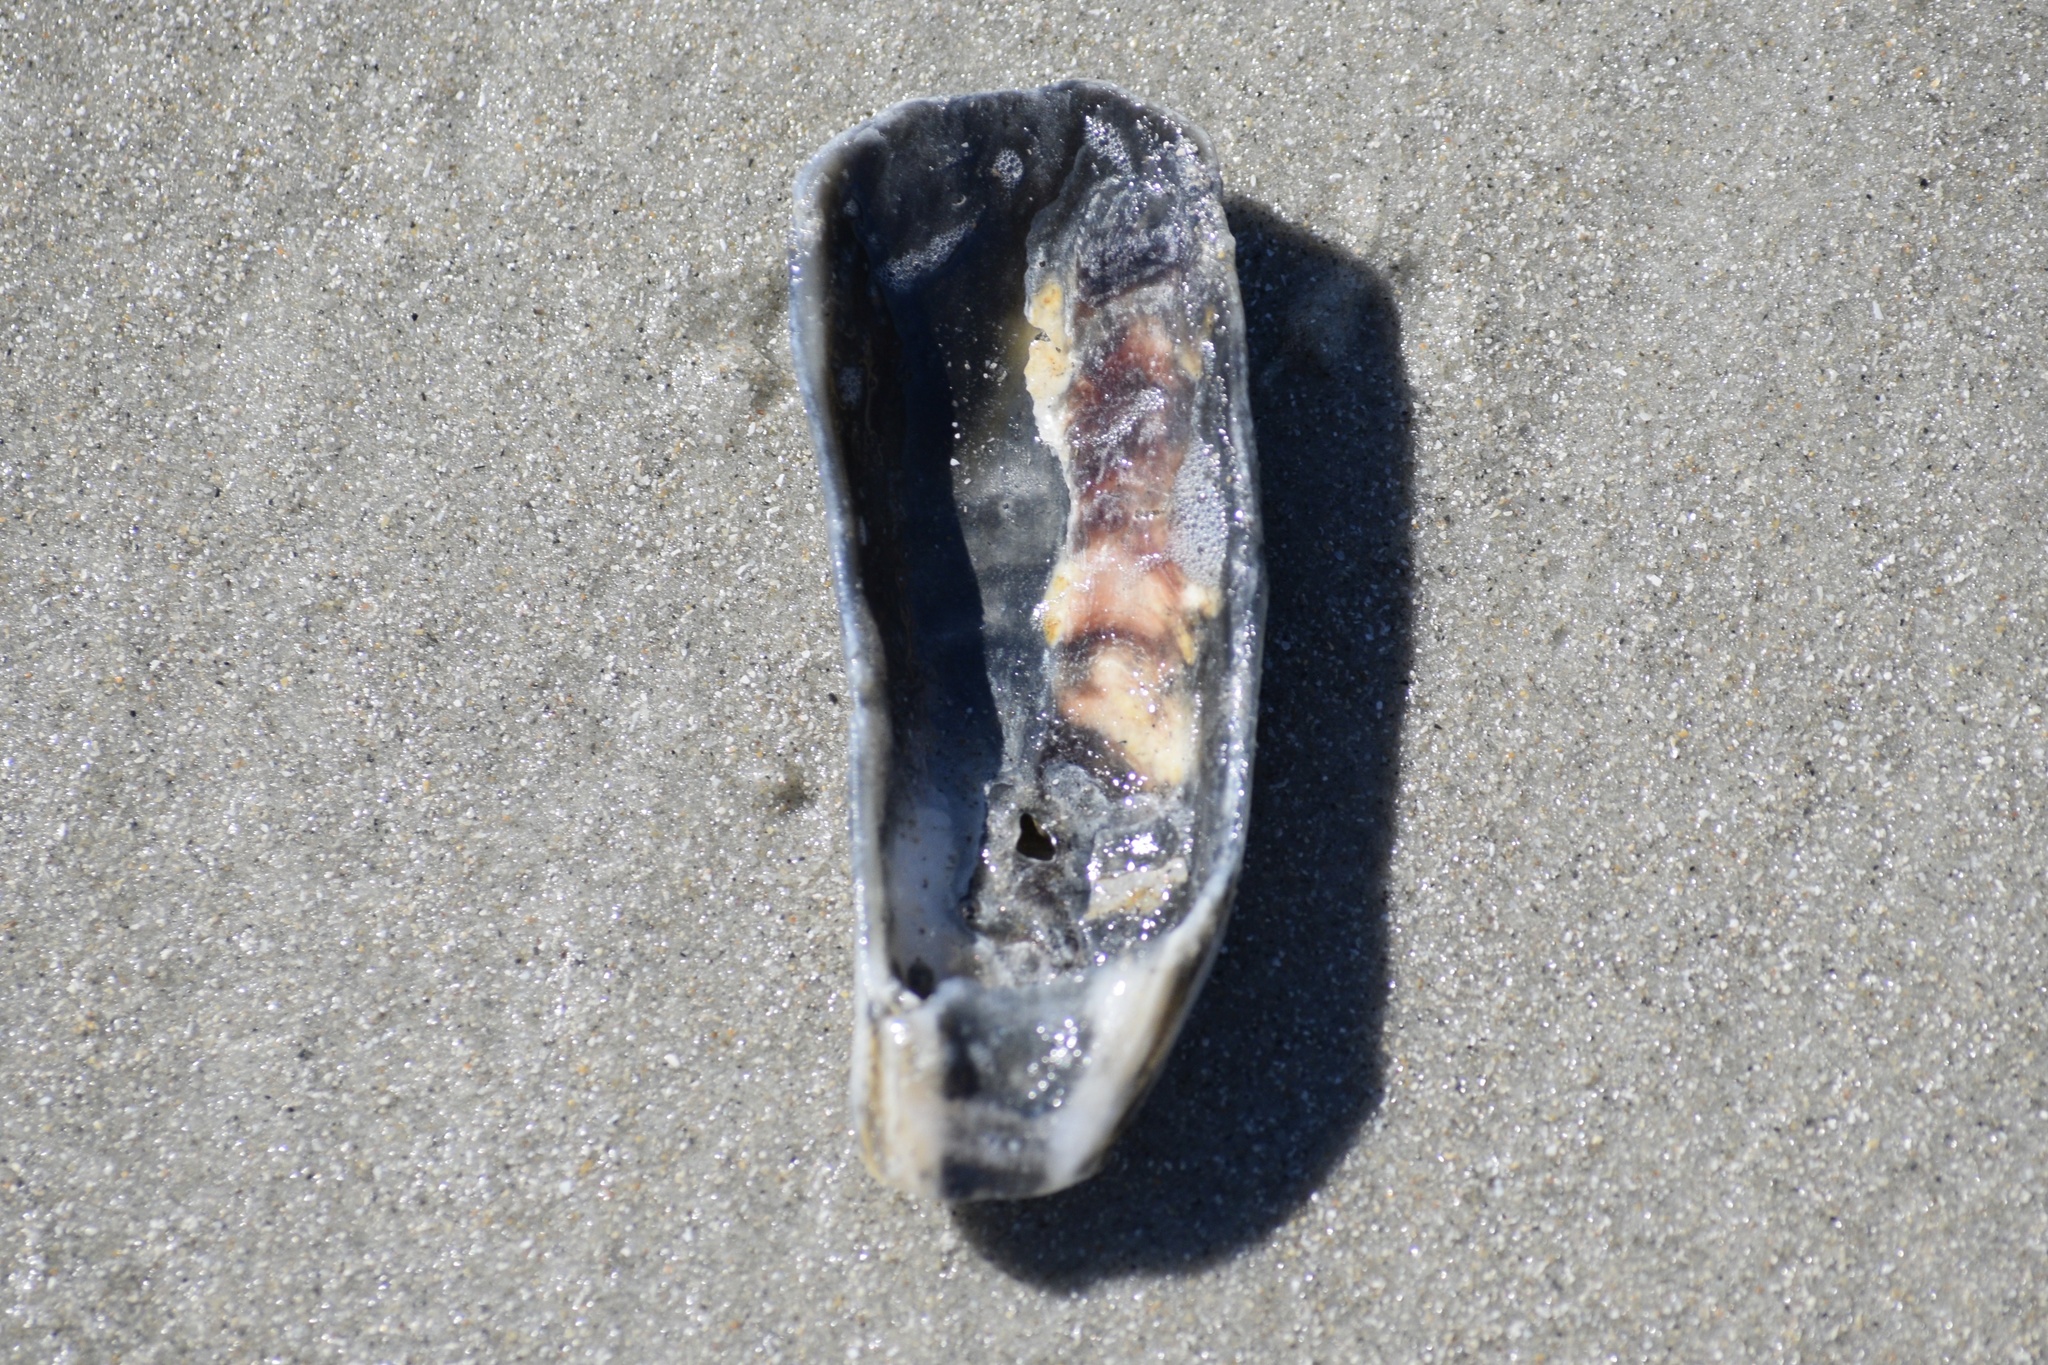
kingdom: Animalia
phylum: Mollusca
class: Bivalvia
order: Ostreida
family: Ostreidae
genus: Crassostrea
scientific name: Crassostrea virginica
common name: American oyster
